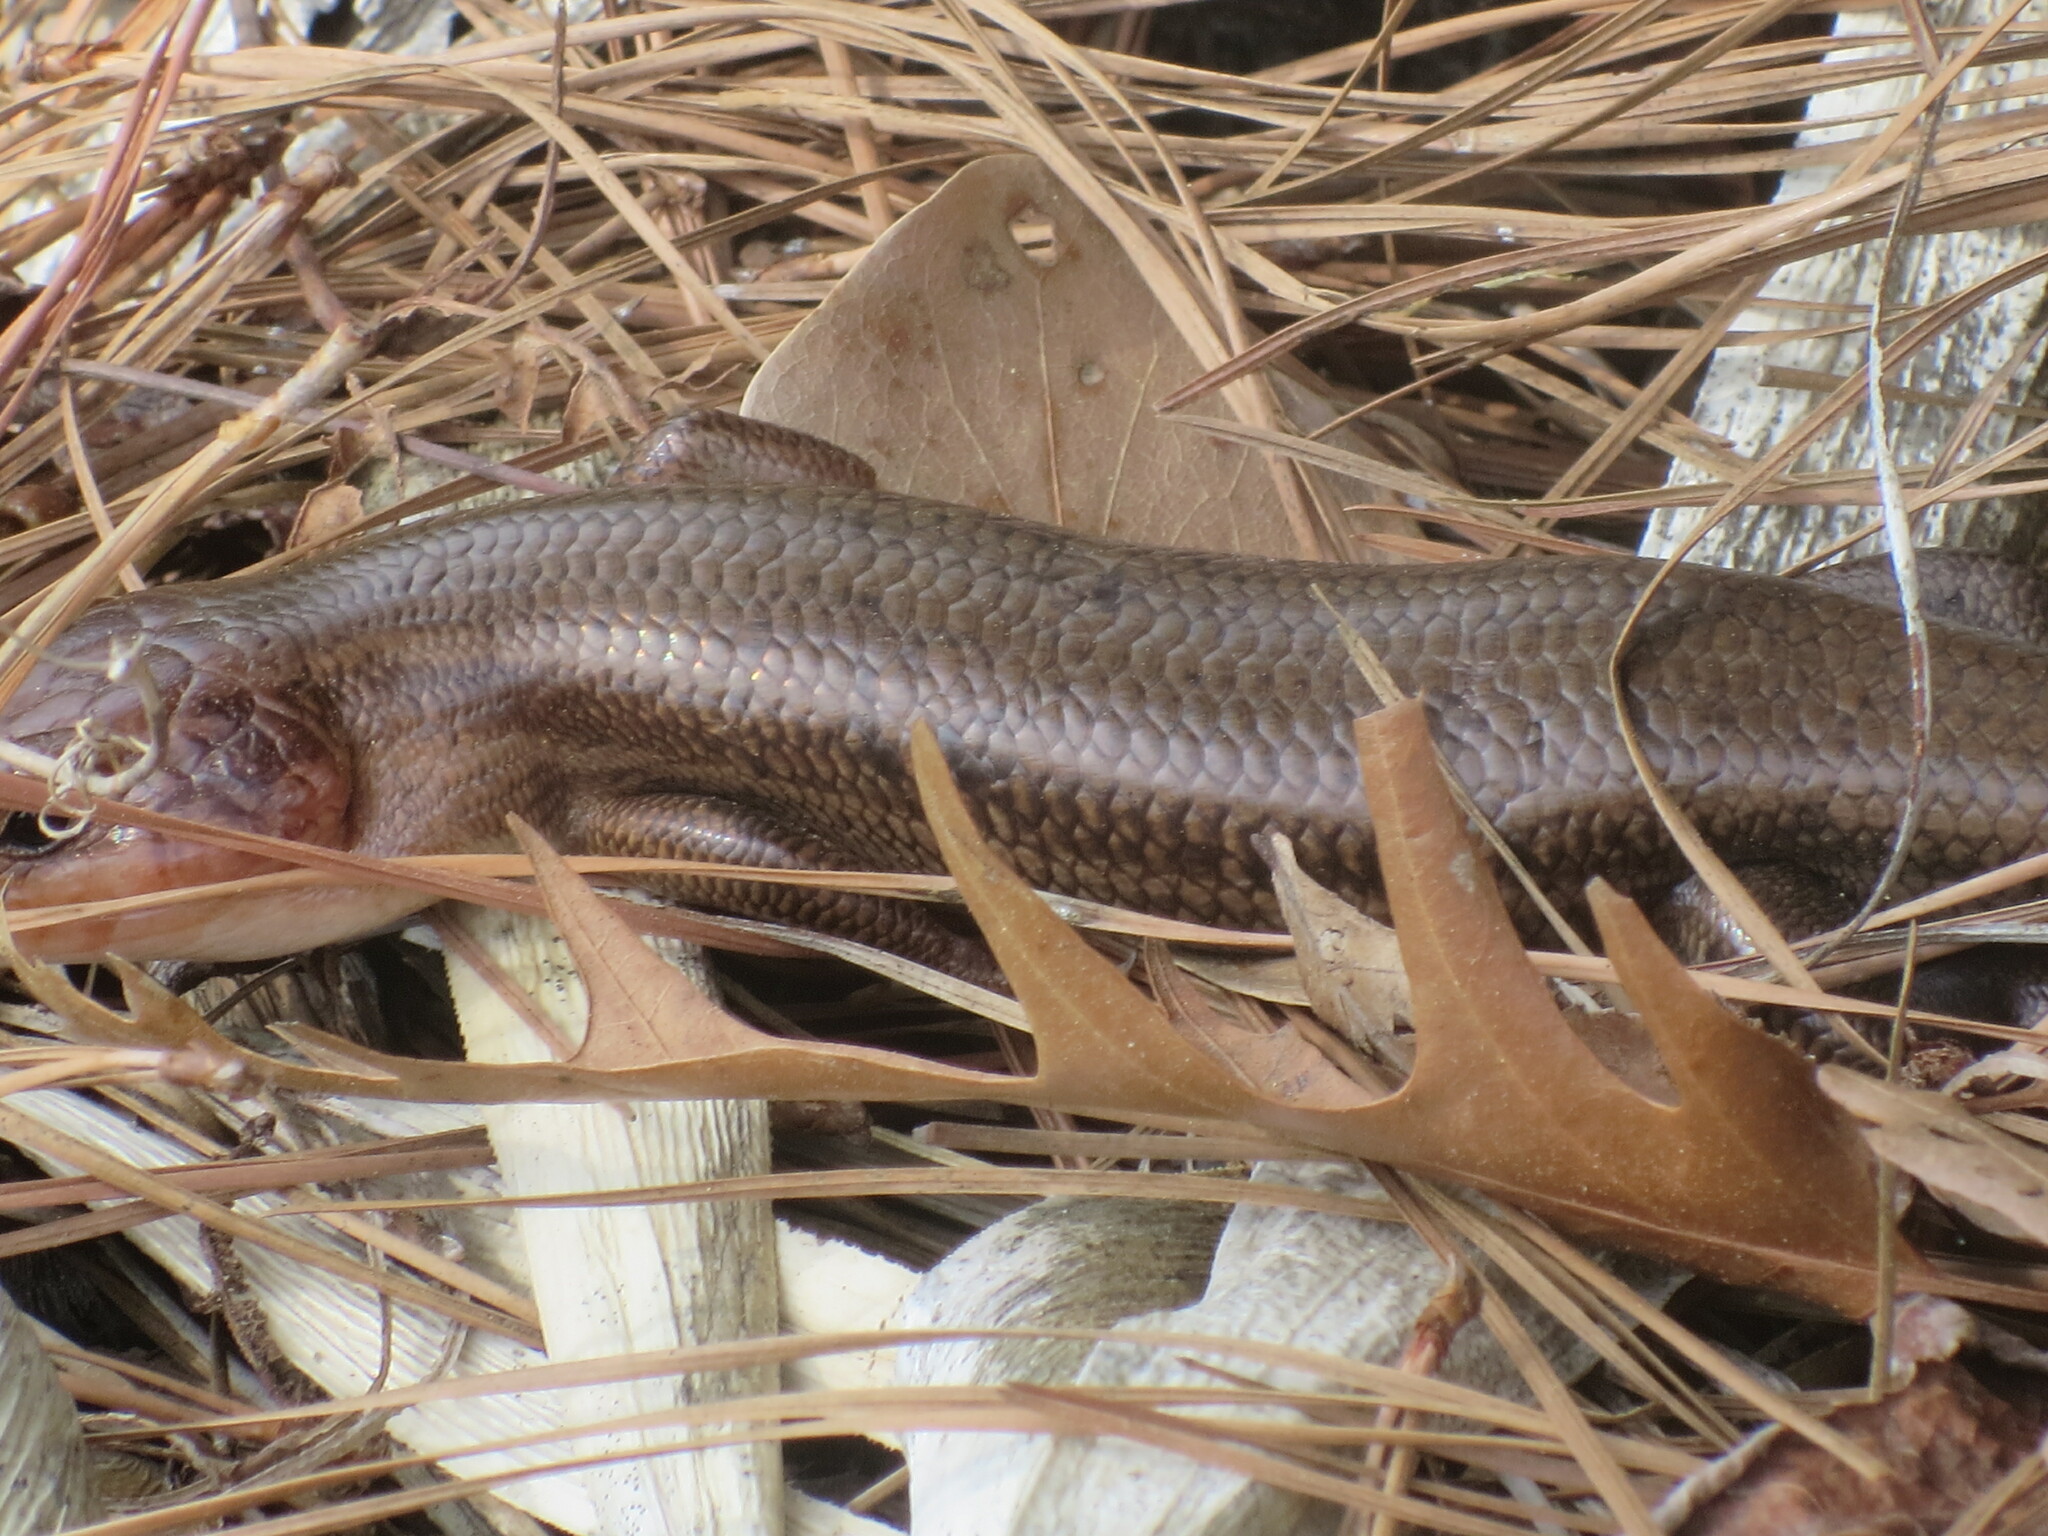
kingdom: Animalia
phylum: Chordata
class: Squamata
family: Scincidae
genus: Plestiodon
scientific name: Plestiodon laticeps
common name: Broadhead skink
